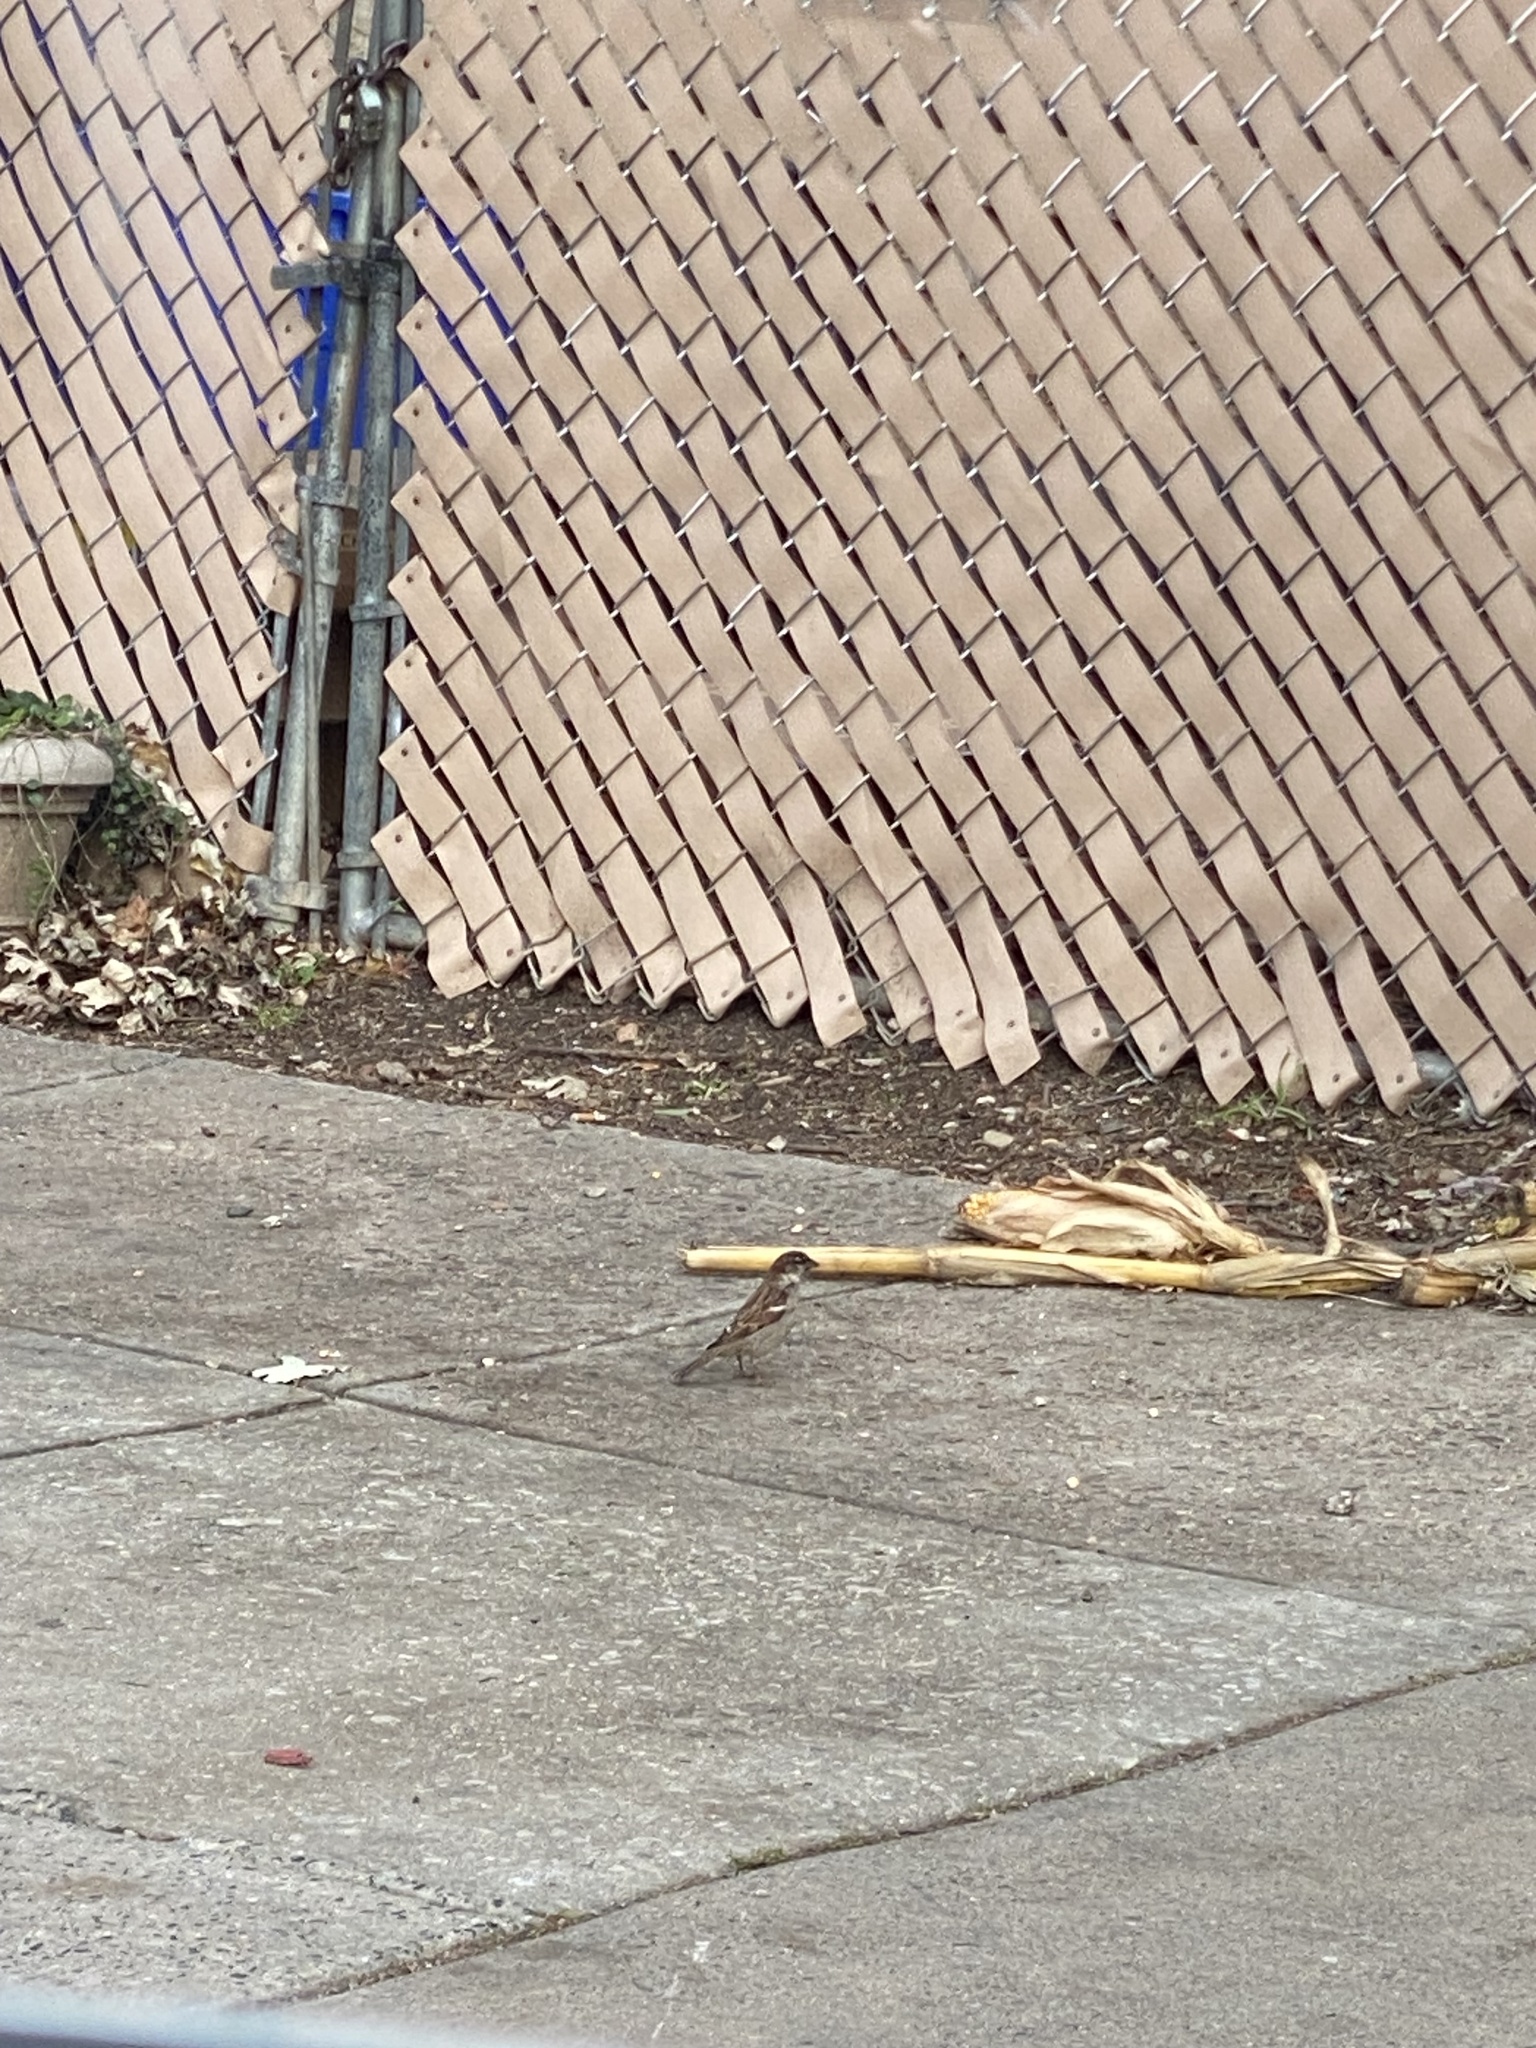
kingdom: Animalia
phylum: Chordata
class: Aves
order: Passeriformes
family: Passeridae
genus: Passer
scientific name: Passer domesticus
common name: House sparrow
